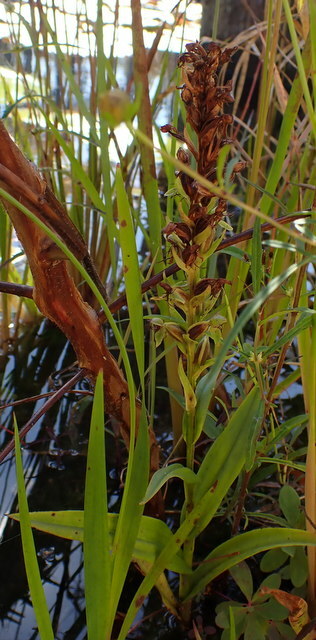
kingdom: Plantae
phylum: Tracheophyta
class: Liliopsida
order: Asparagales
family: Orchidaceae
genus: Habenaria
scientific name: Habenaria repens
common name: Water orchid
